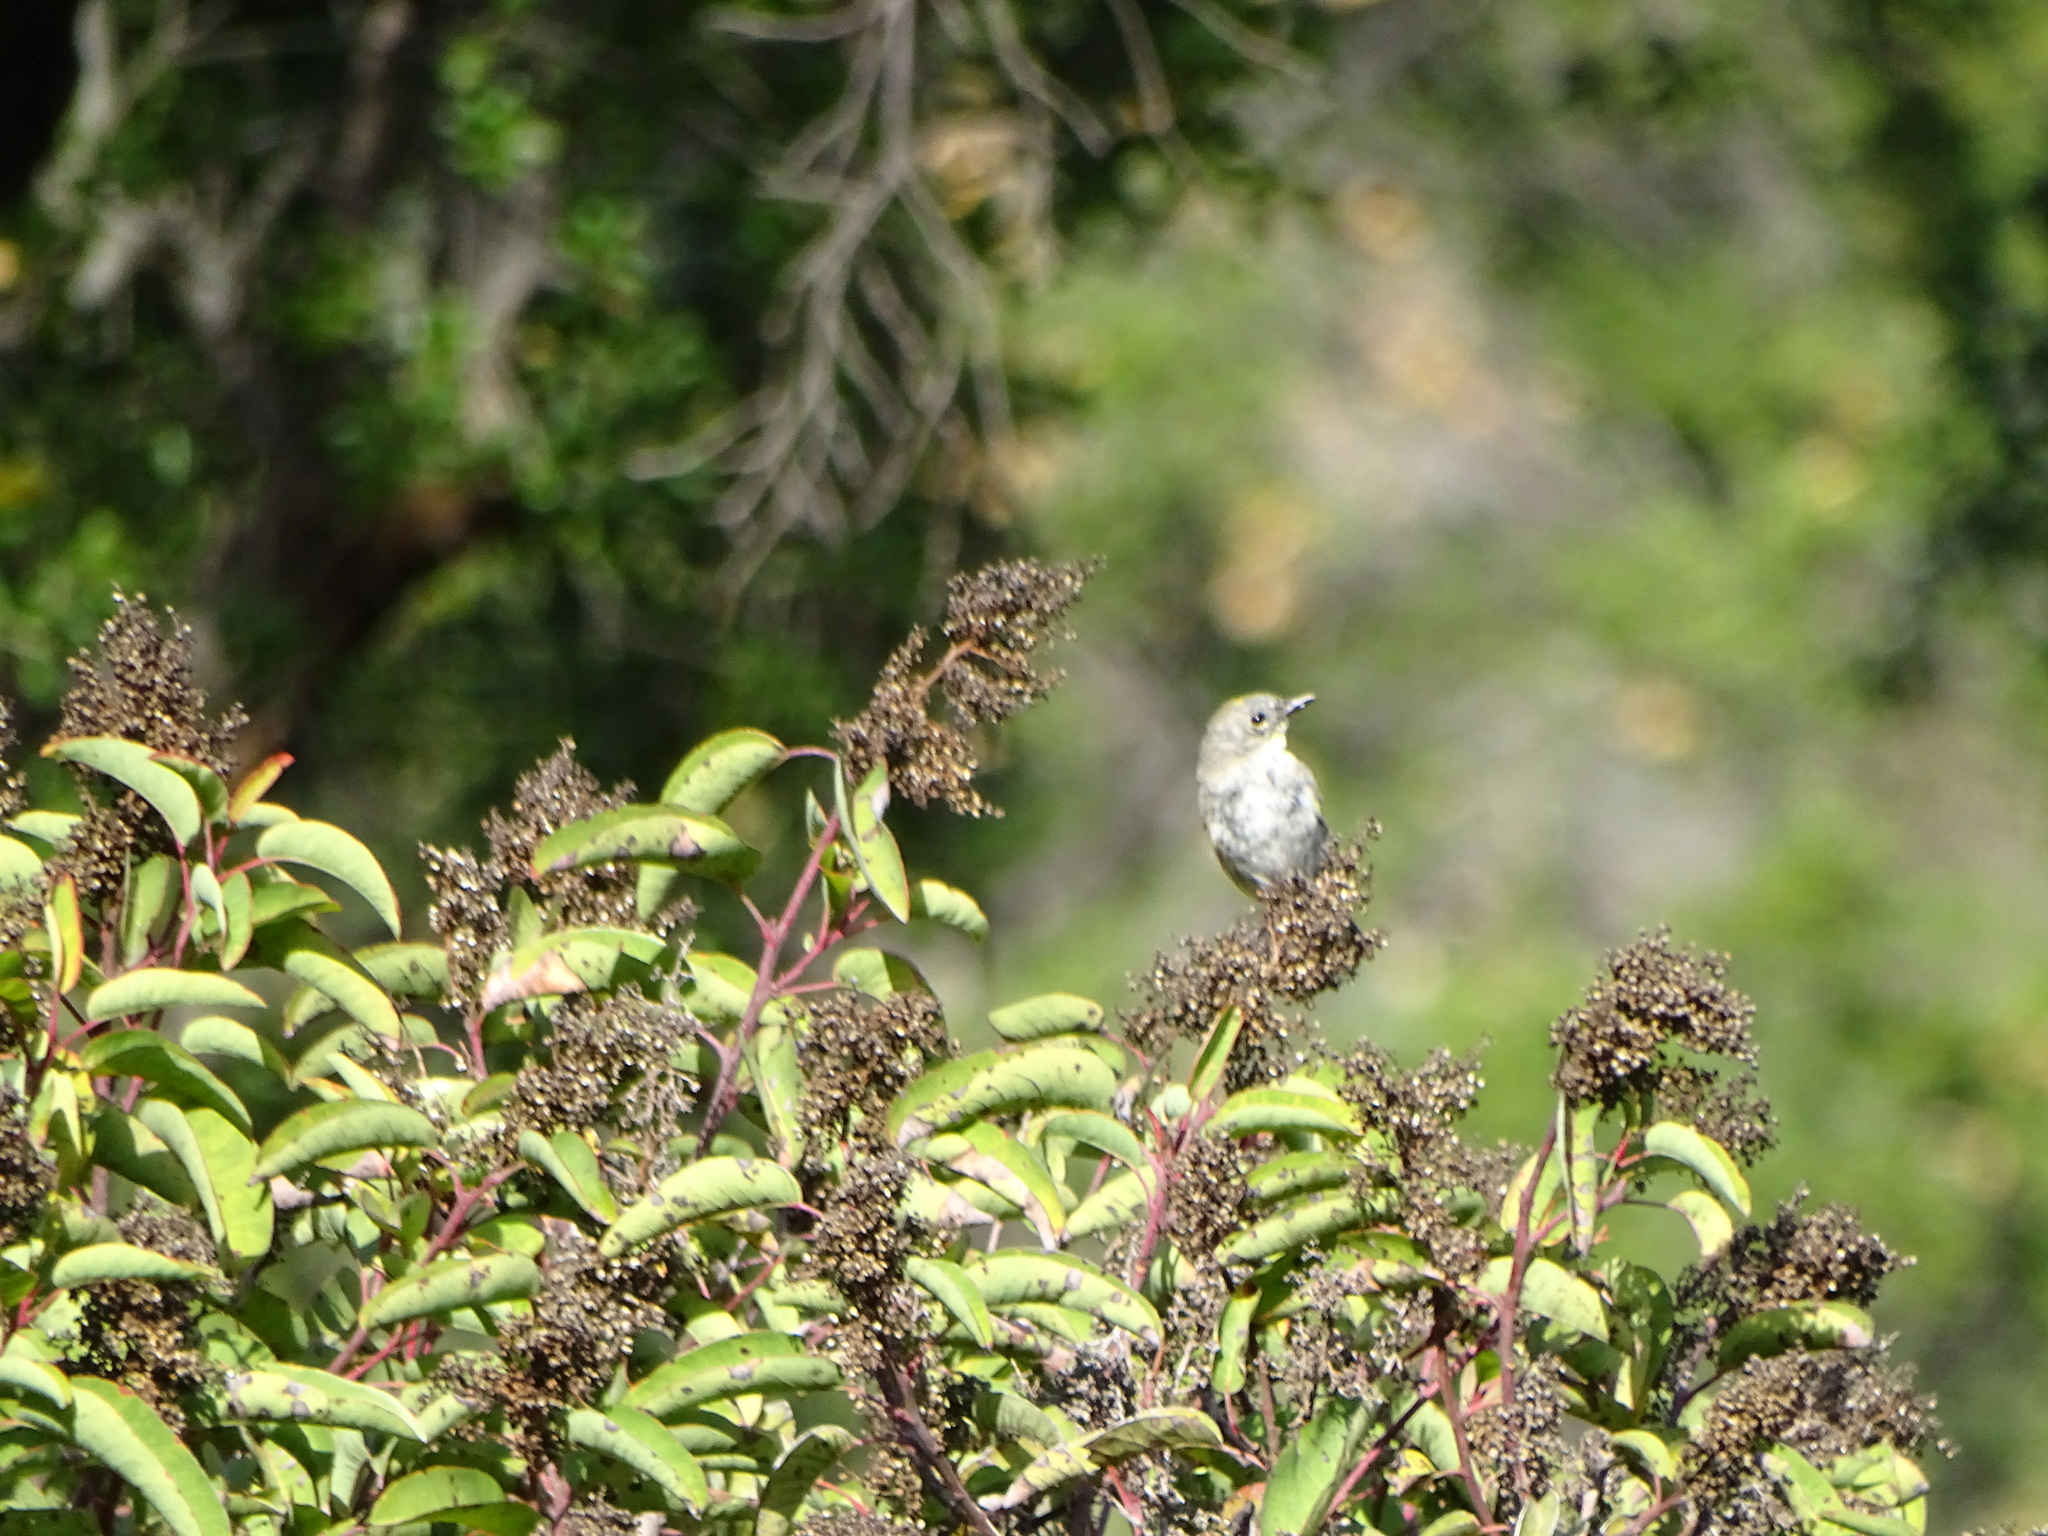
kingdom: Animalia
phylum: Chordata
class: Aves
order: Passeriformes
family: Parulidae
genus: Setophaga
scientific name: Setophaga coronata
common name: Myrtle warbler
